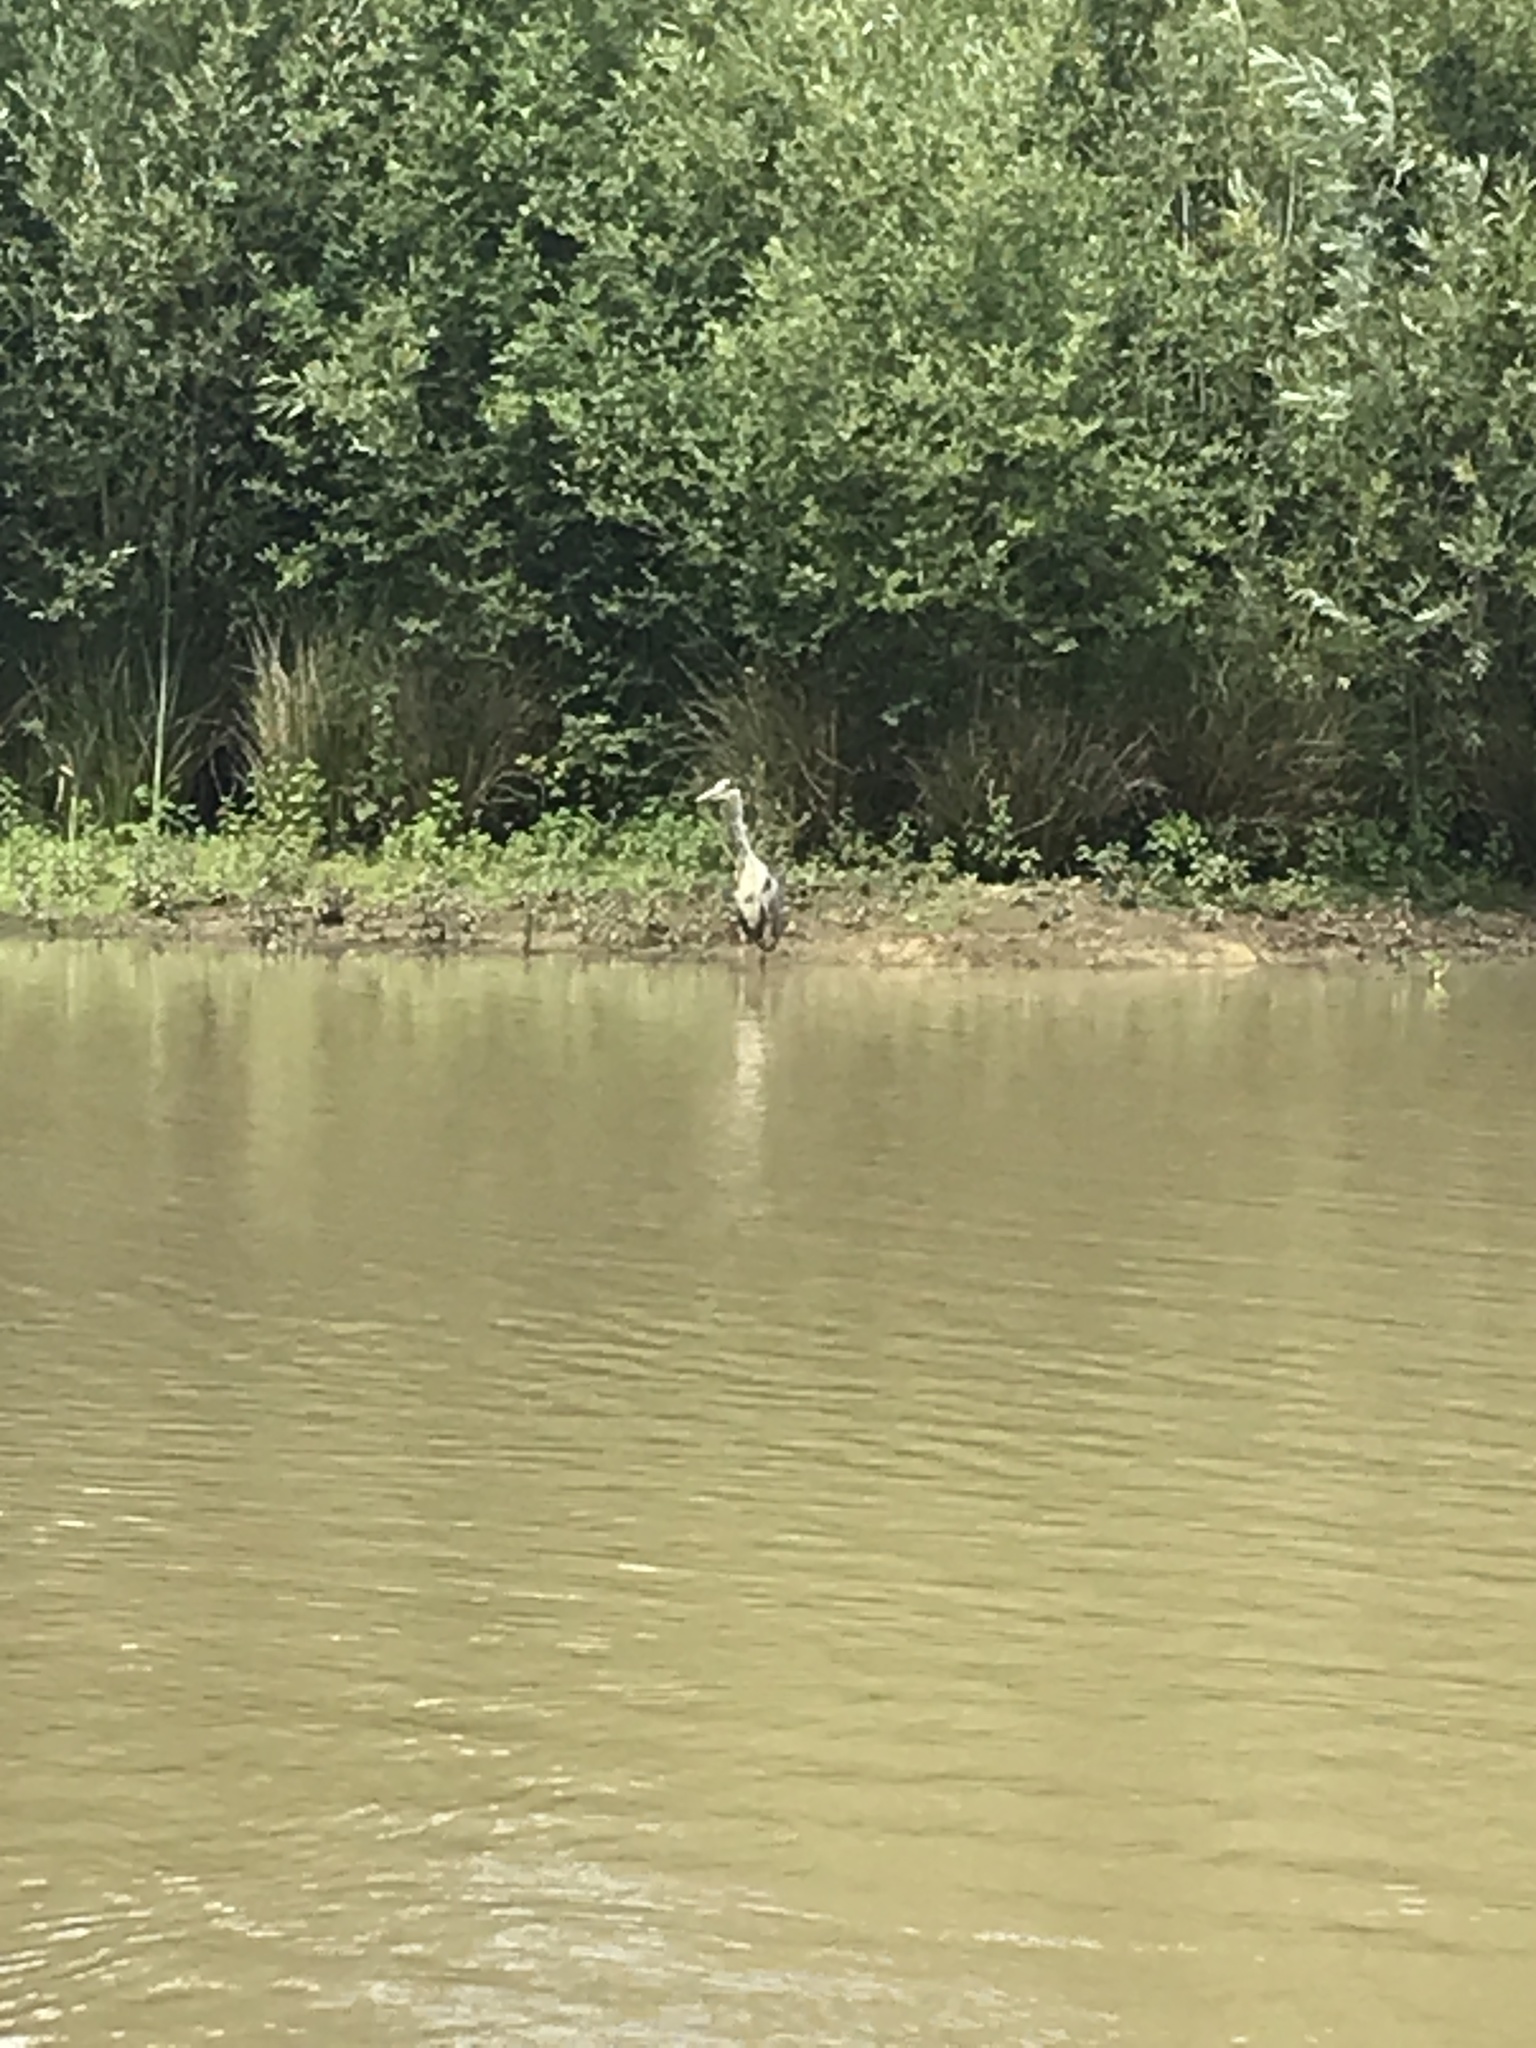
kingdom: Animalia
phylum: Chordata
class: Aves
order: Pelecaniformes
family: Ardeidae
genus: Ardea
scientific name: Ardea cinerea
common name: Grey heron
